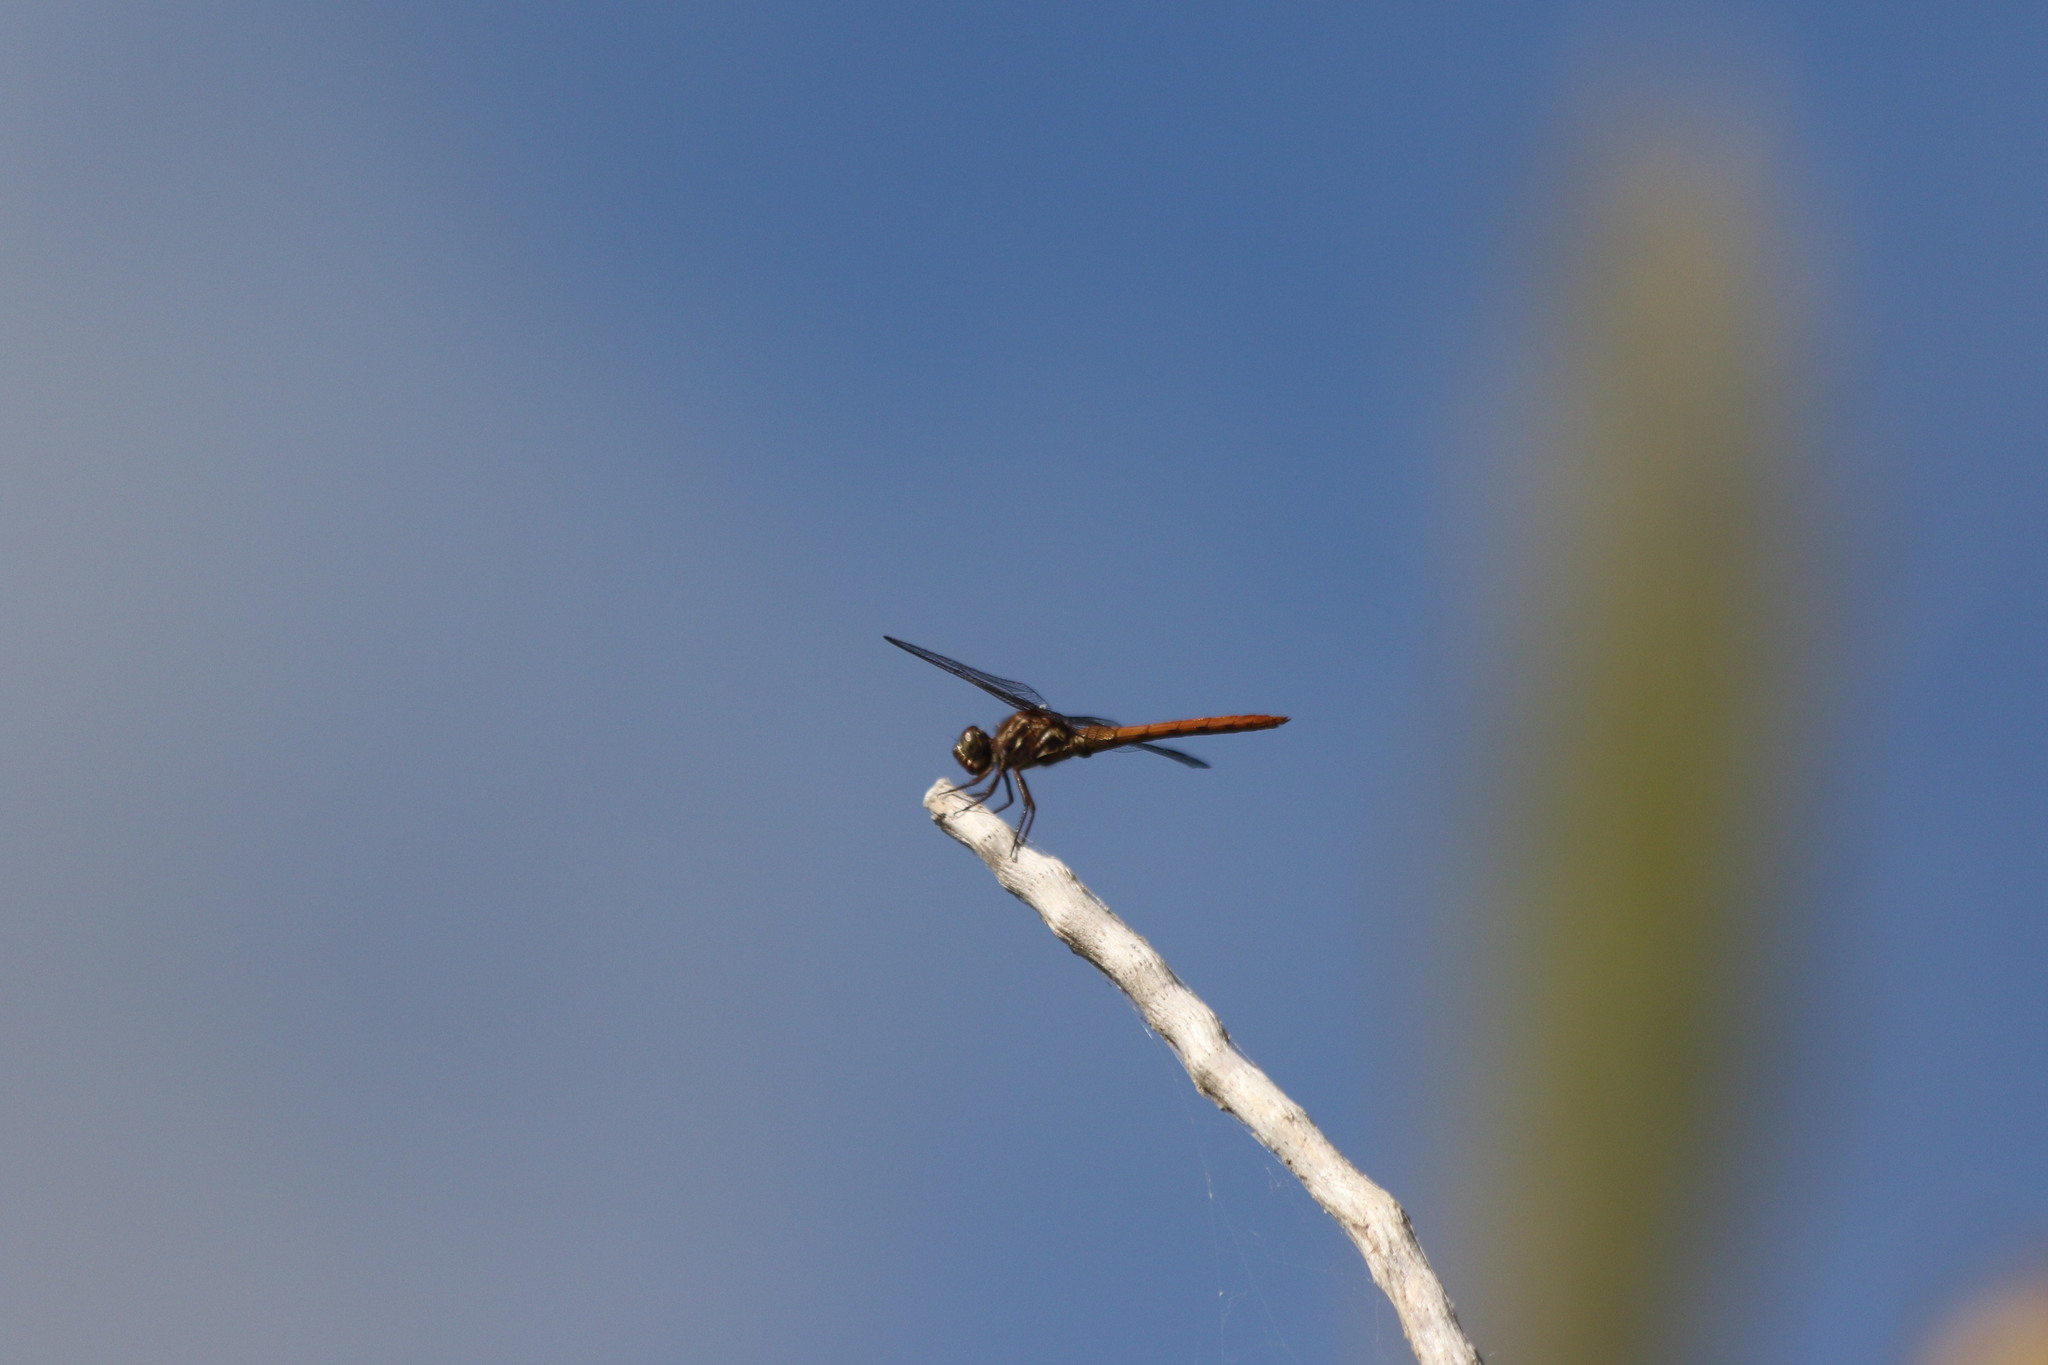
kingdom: Animalia
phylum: Arthropoda
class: Insecta
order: Odonata
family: Libellulidae
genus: Orthemis
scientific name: Orthemis ferruginea
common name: Roseate skimmer
